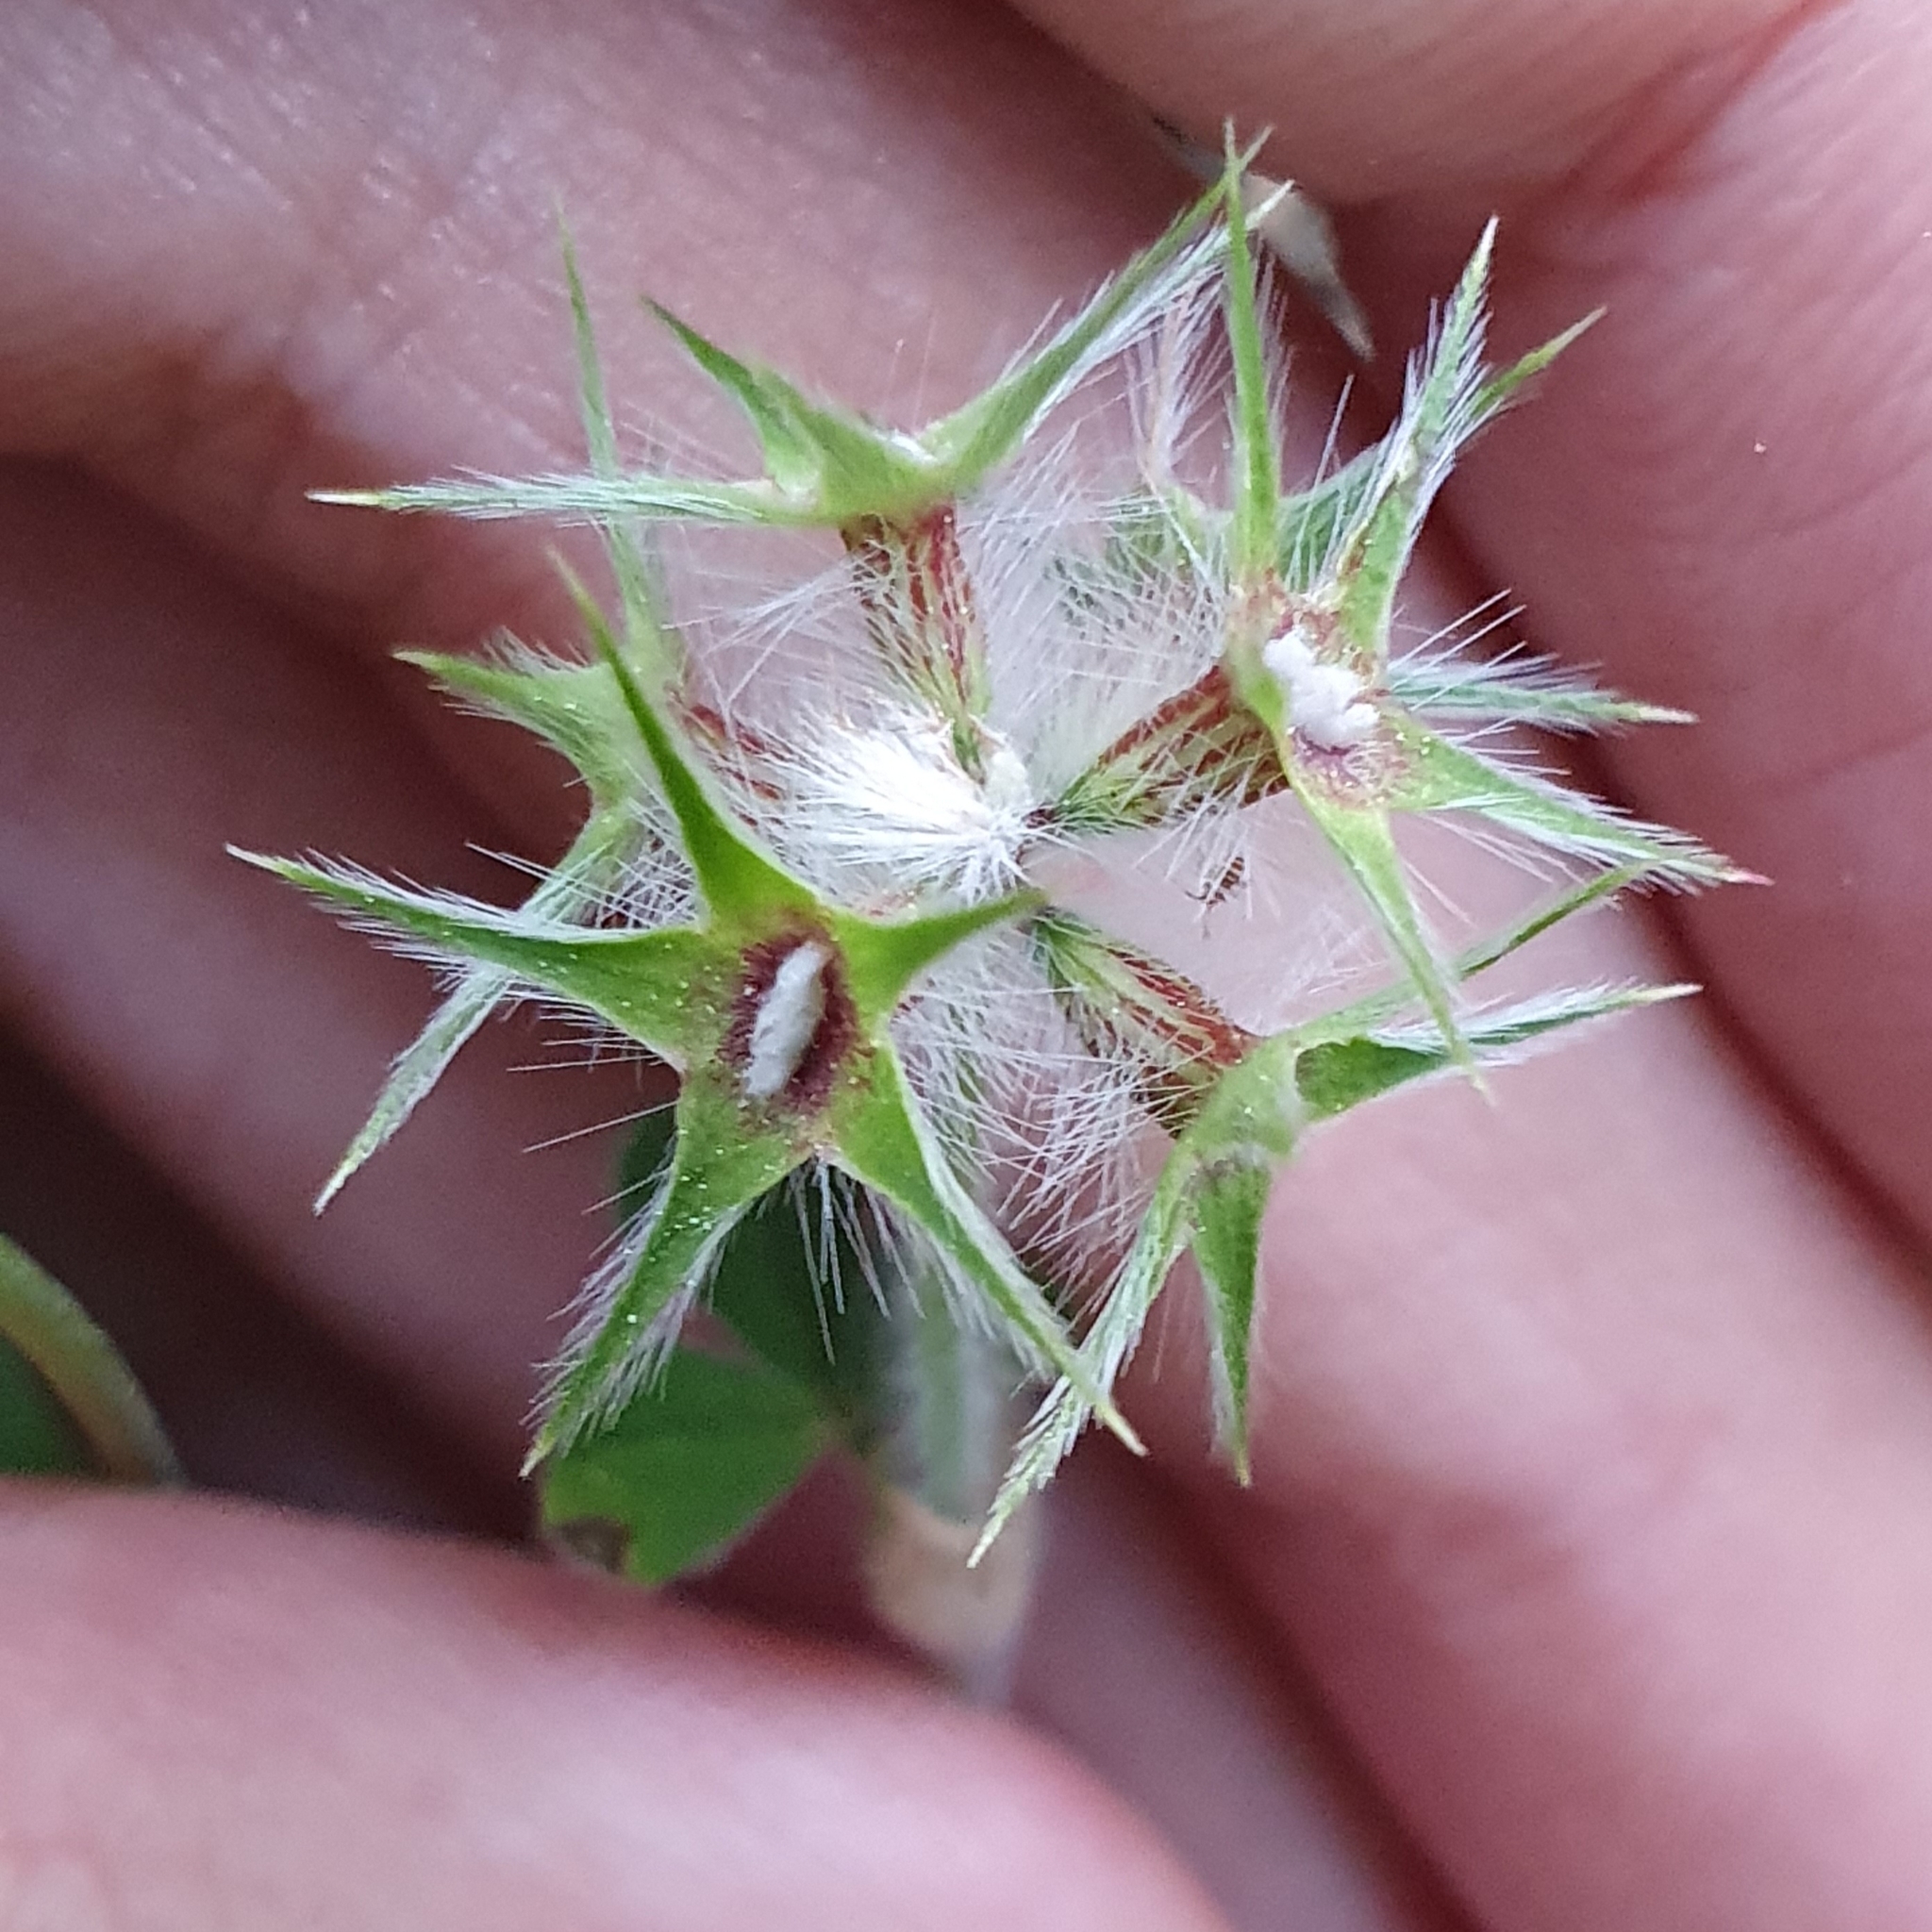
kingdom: Plantae
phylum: Tracheophyta
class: Magnoliopsida
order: Fabales
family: Fabaceae
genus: Trifolium
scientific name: Trifolium stellatum
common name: Starry clover
